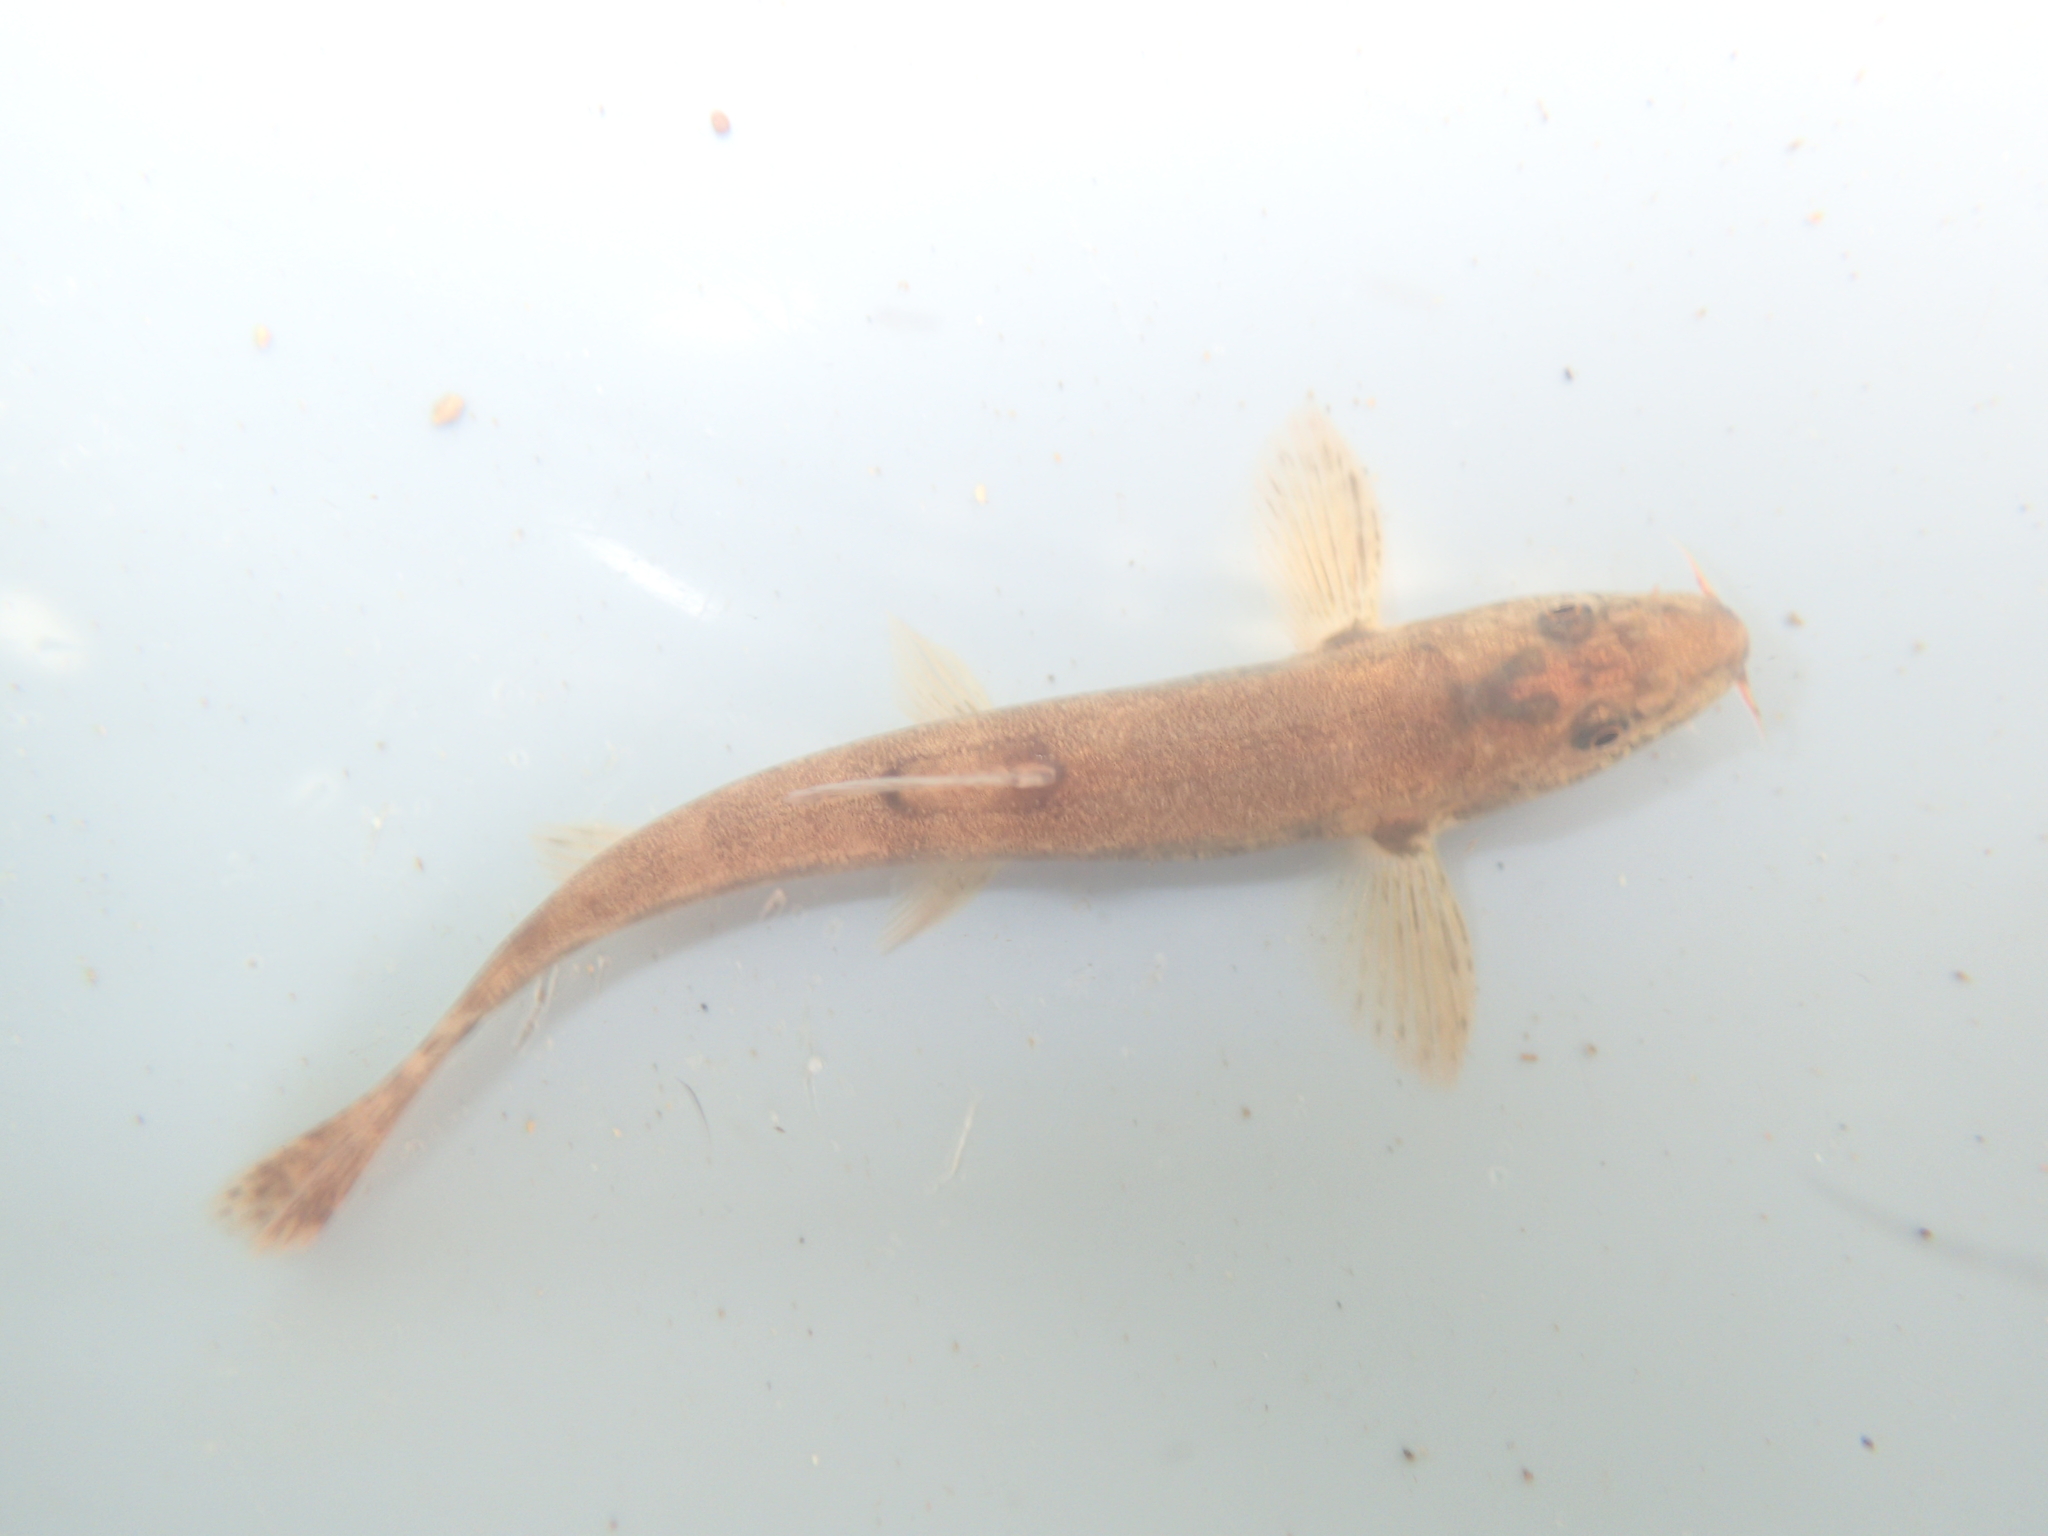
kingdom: Animalia
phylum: Chordata
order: Cypriniformes
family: Nemacheilidae
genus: Barbatula
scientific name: Barbatula barbatula
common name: Stone loach
